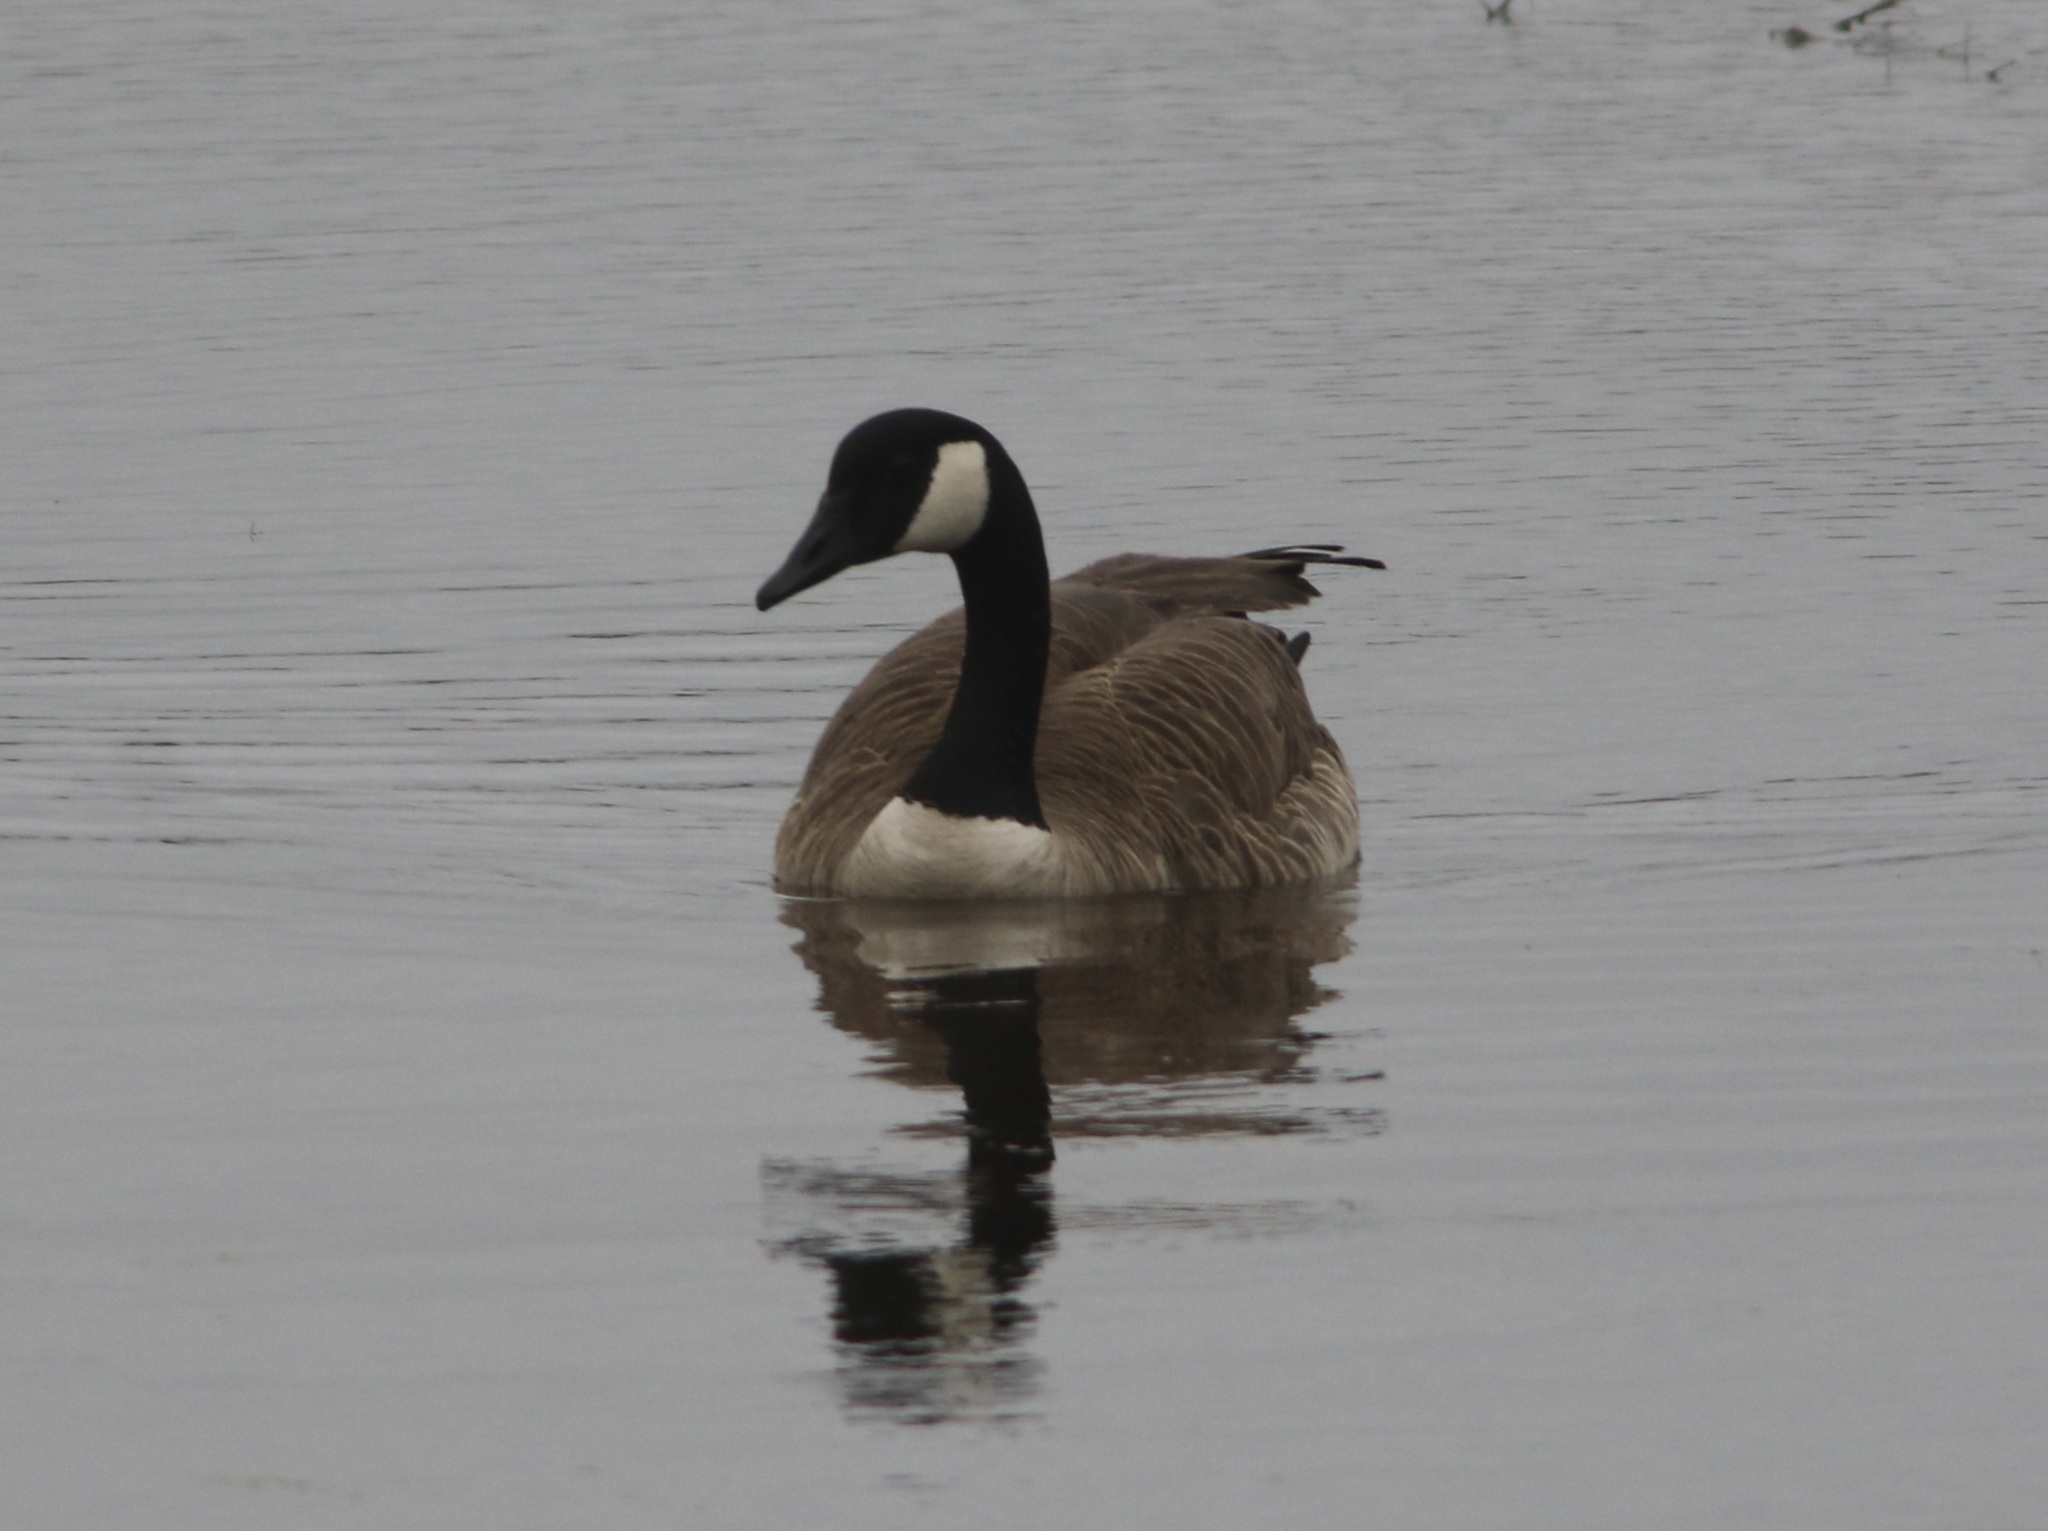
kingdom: Animalia
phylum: Chordata
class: Aves
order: Anseriformes
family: Anatidae
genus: Branta
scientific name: Branta canadensis
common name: Canada goose
